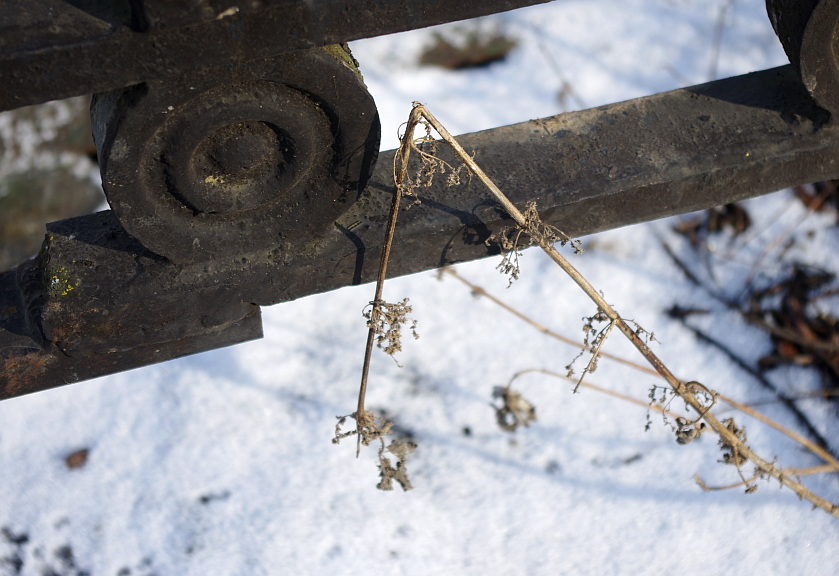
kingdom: Plantae
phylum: Tracheophyta
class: Magnoliopsida
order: Rosales
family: Urticaceae
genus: Urtica
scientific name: Urtica dioica
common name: Common nettle
